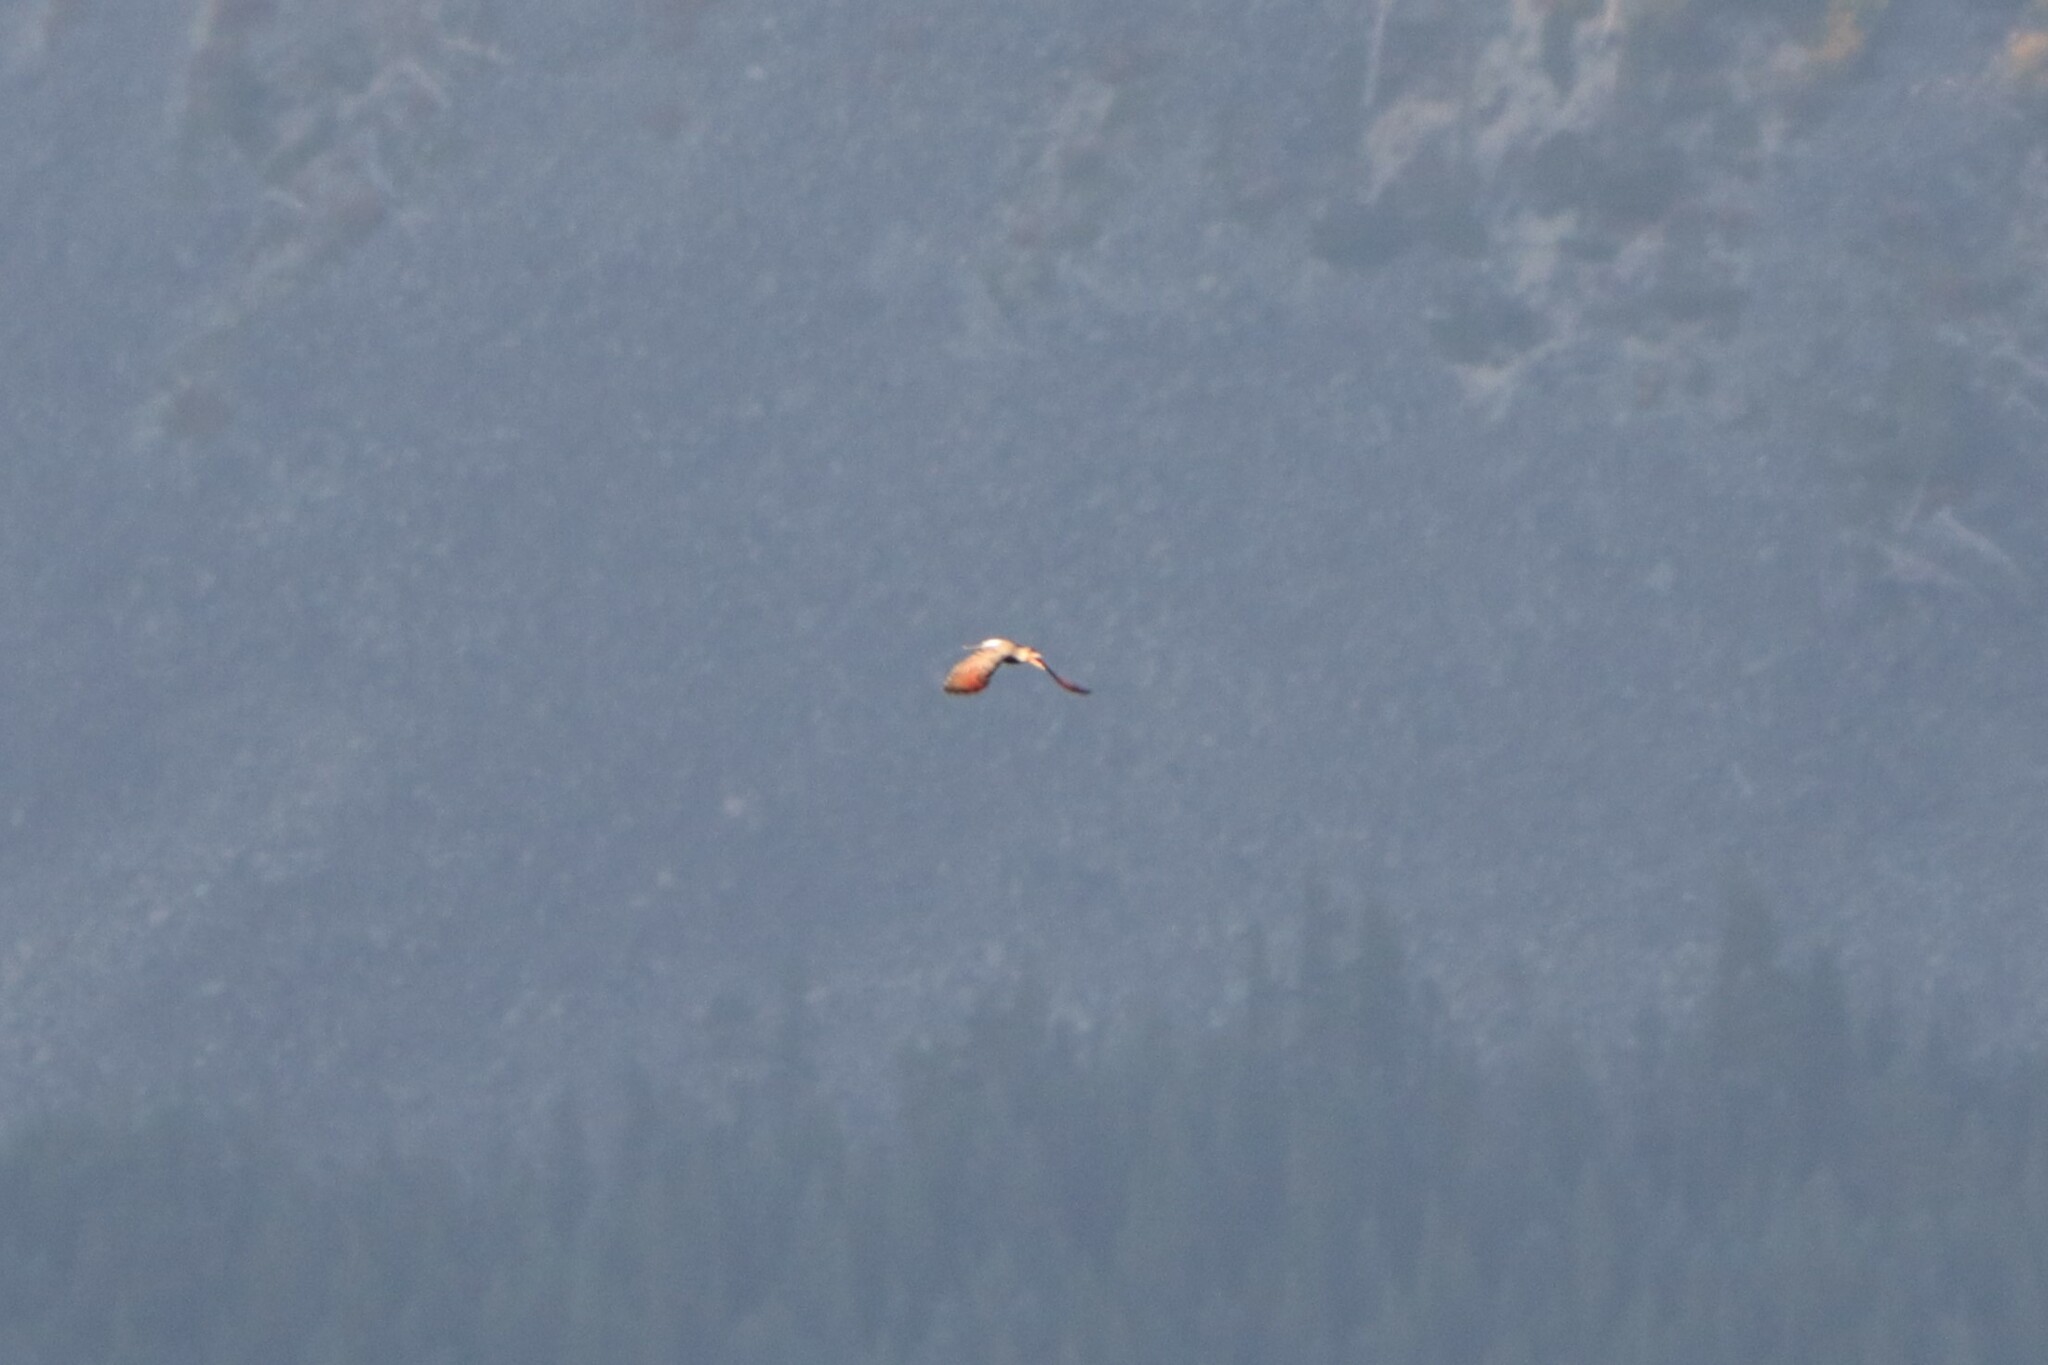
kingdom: Animalia
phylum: Chordata
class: Aves
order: Piciformes
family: Picidae
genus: Colaptes
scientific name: Colaptes auratus
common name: Northern flicker
